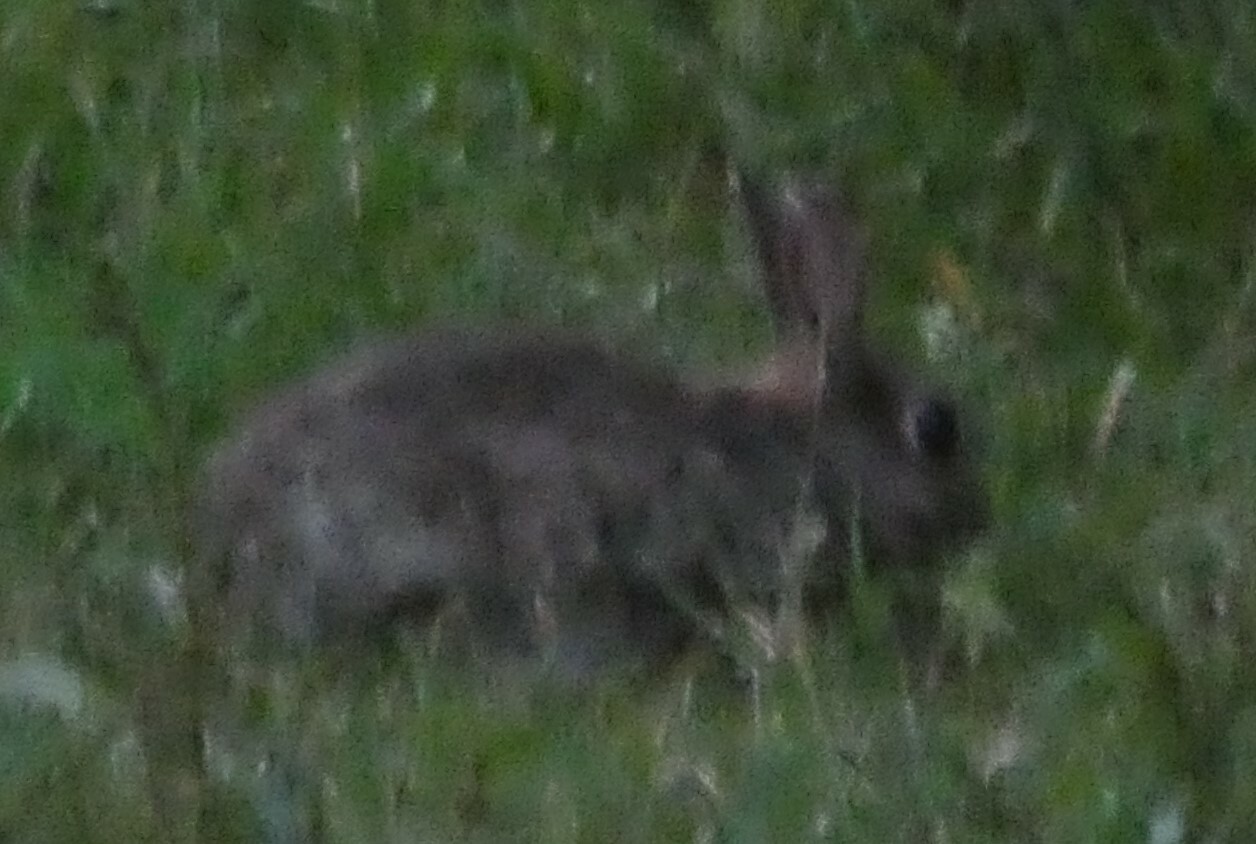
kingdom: Animalia
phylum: Chordata
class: Mammalia
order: Lagomorpha
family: Leporidae
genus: Oryctolagus
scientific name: Oryctolagus cuniculus
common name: European rabbit
